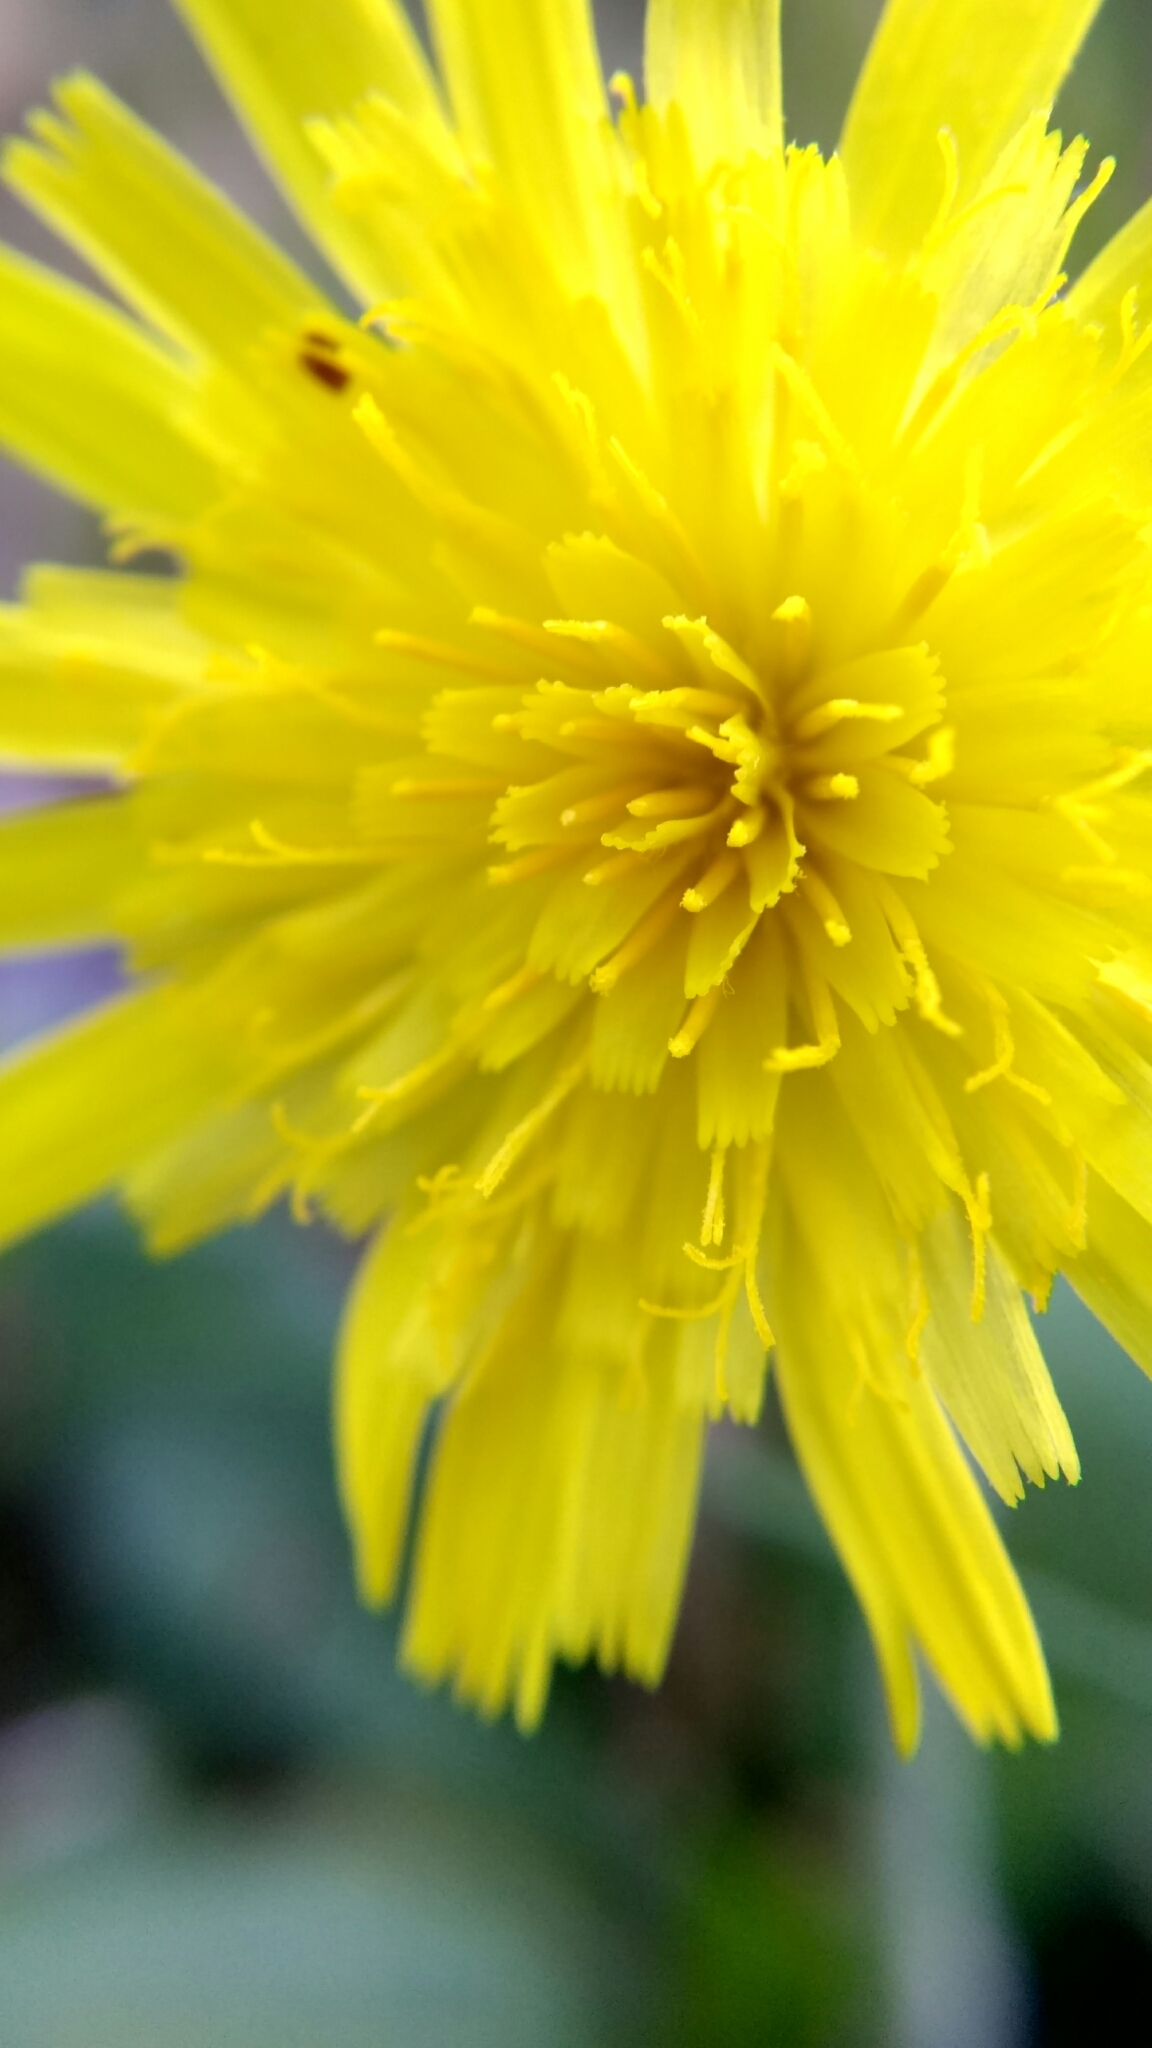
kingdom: Plantae
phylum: Tracheophyta
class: Magnoliopsida
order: Asterales
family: Asteraceae
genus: Pilosella
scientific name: Pilosella officinarum
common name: Mouse-ear hawkweed
